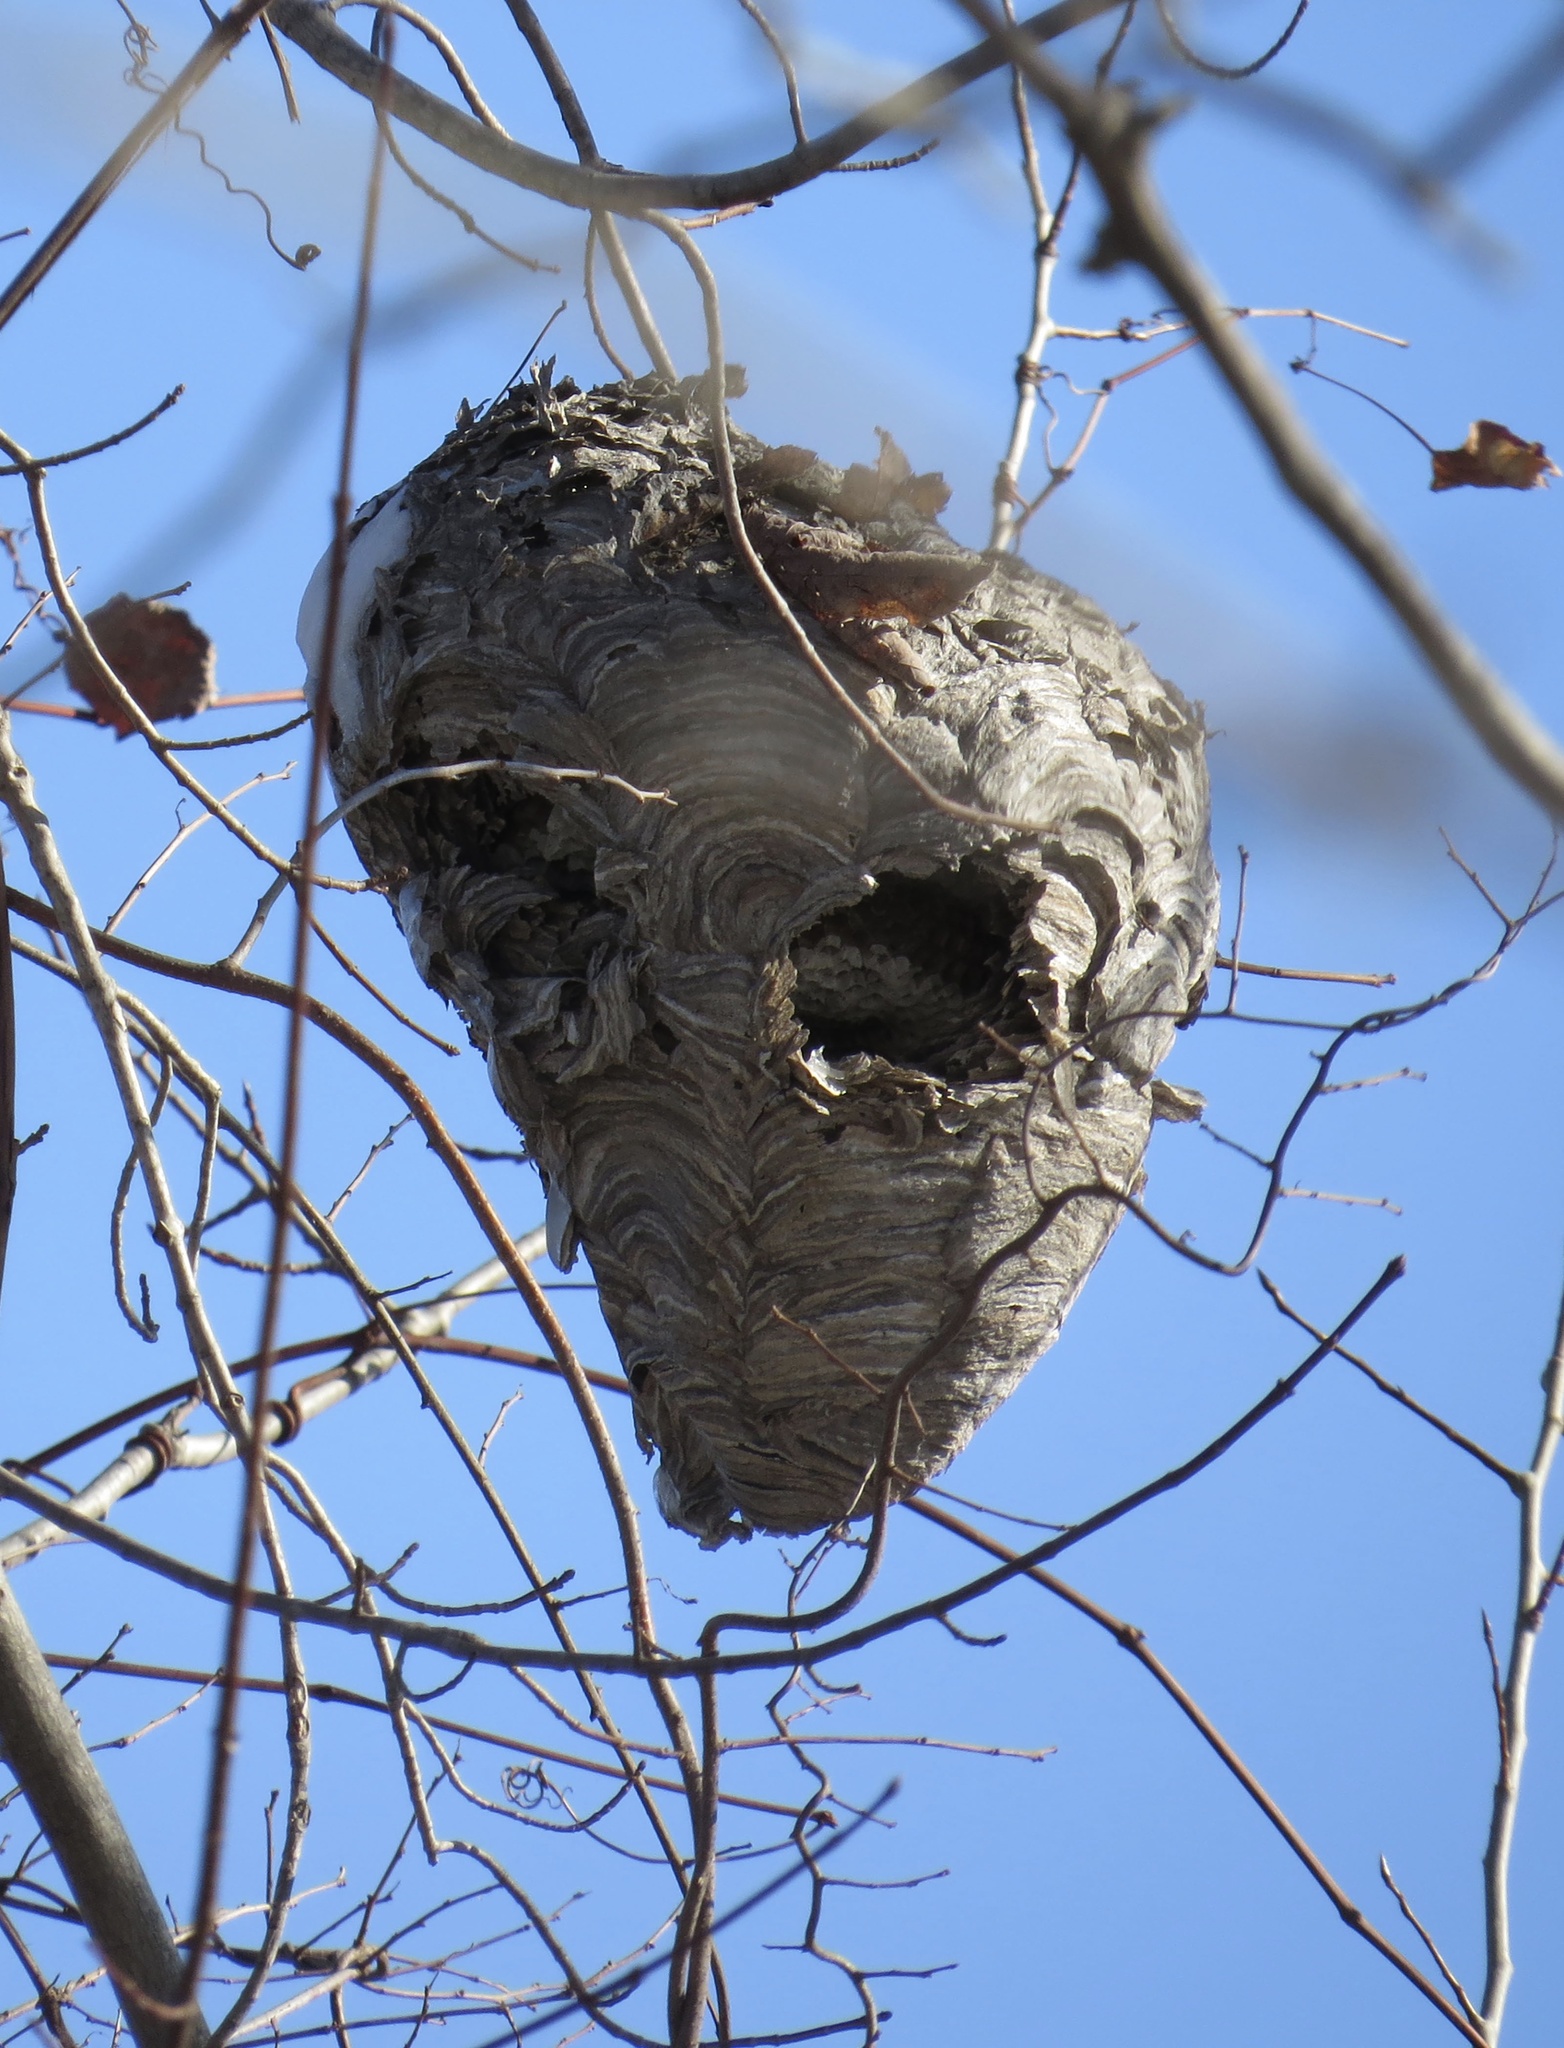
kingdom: Animalia
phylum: Arthropoda
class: Insecta
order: Hymenoptera
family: Vespidae
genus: Dolichovespula
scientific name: Dolichovespula maculata
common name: Bald-faced hornet
